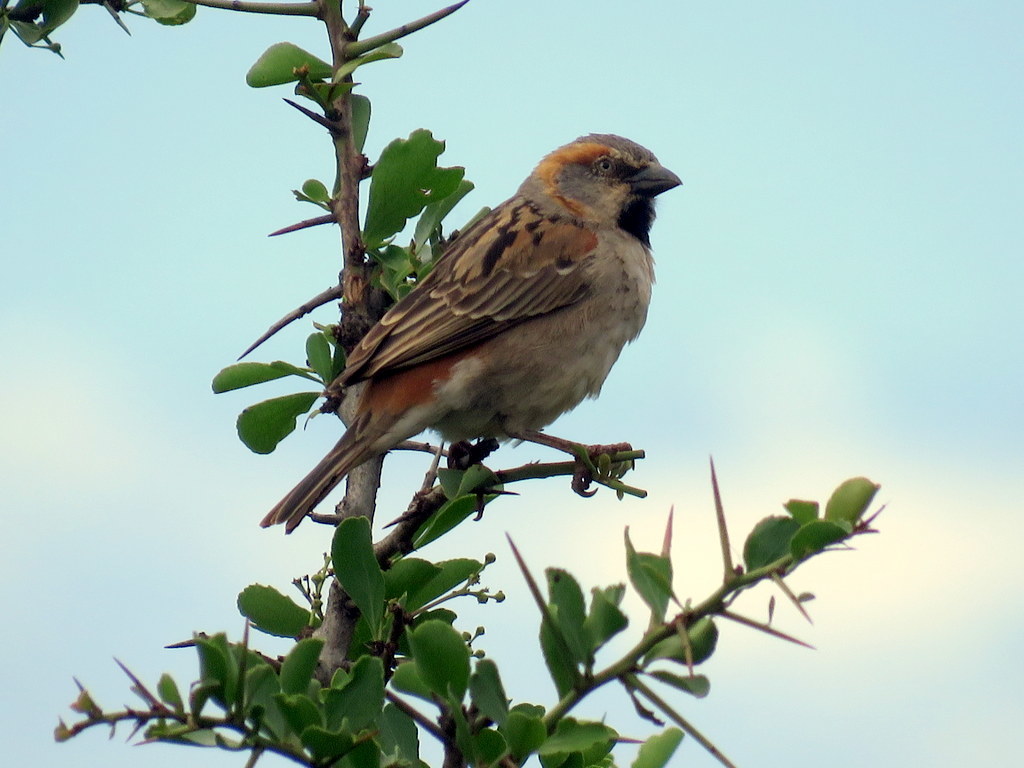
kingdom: Animalia
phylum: Chordata
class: Aves
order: Passeriformes
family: Passeridae
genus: Passer
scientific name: Passer rufocinctus
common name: Kenya sparrow
